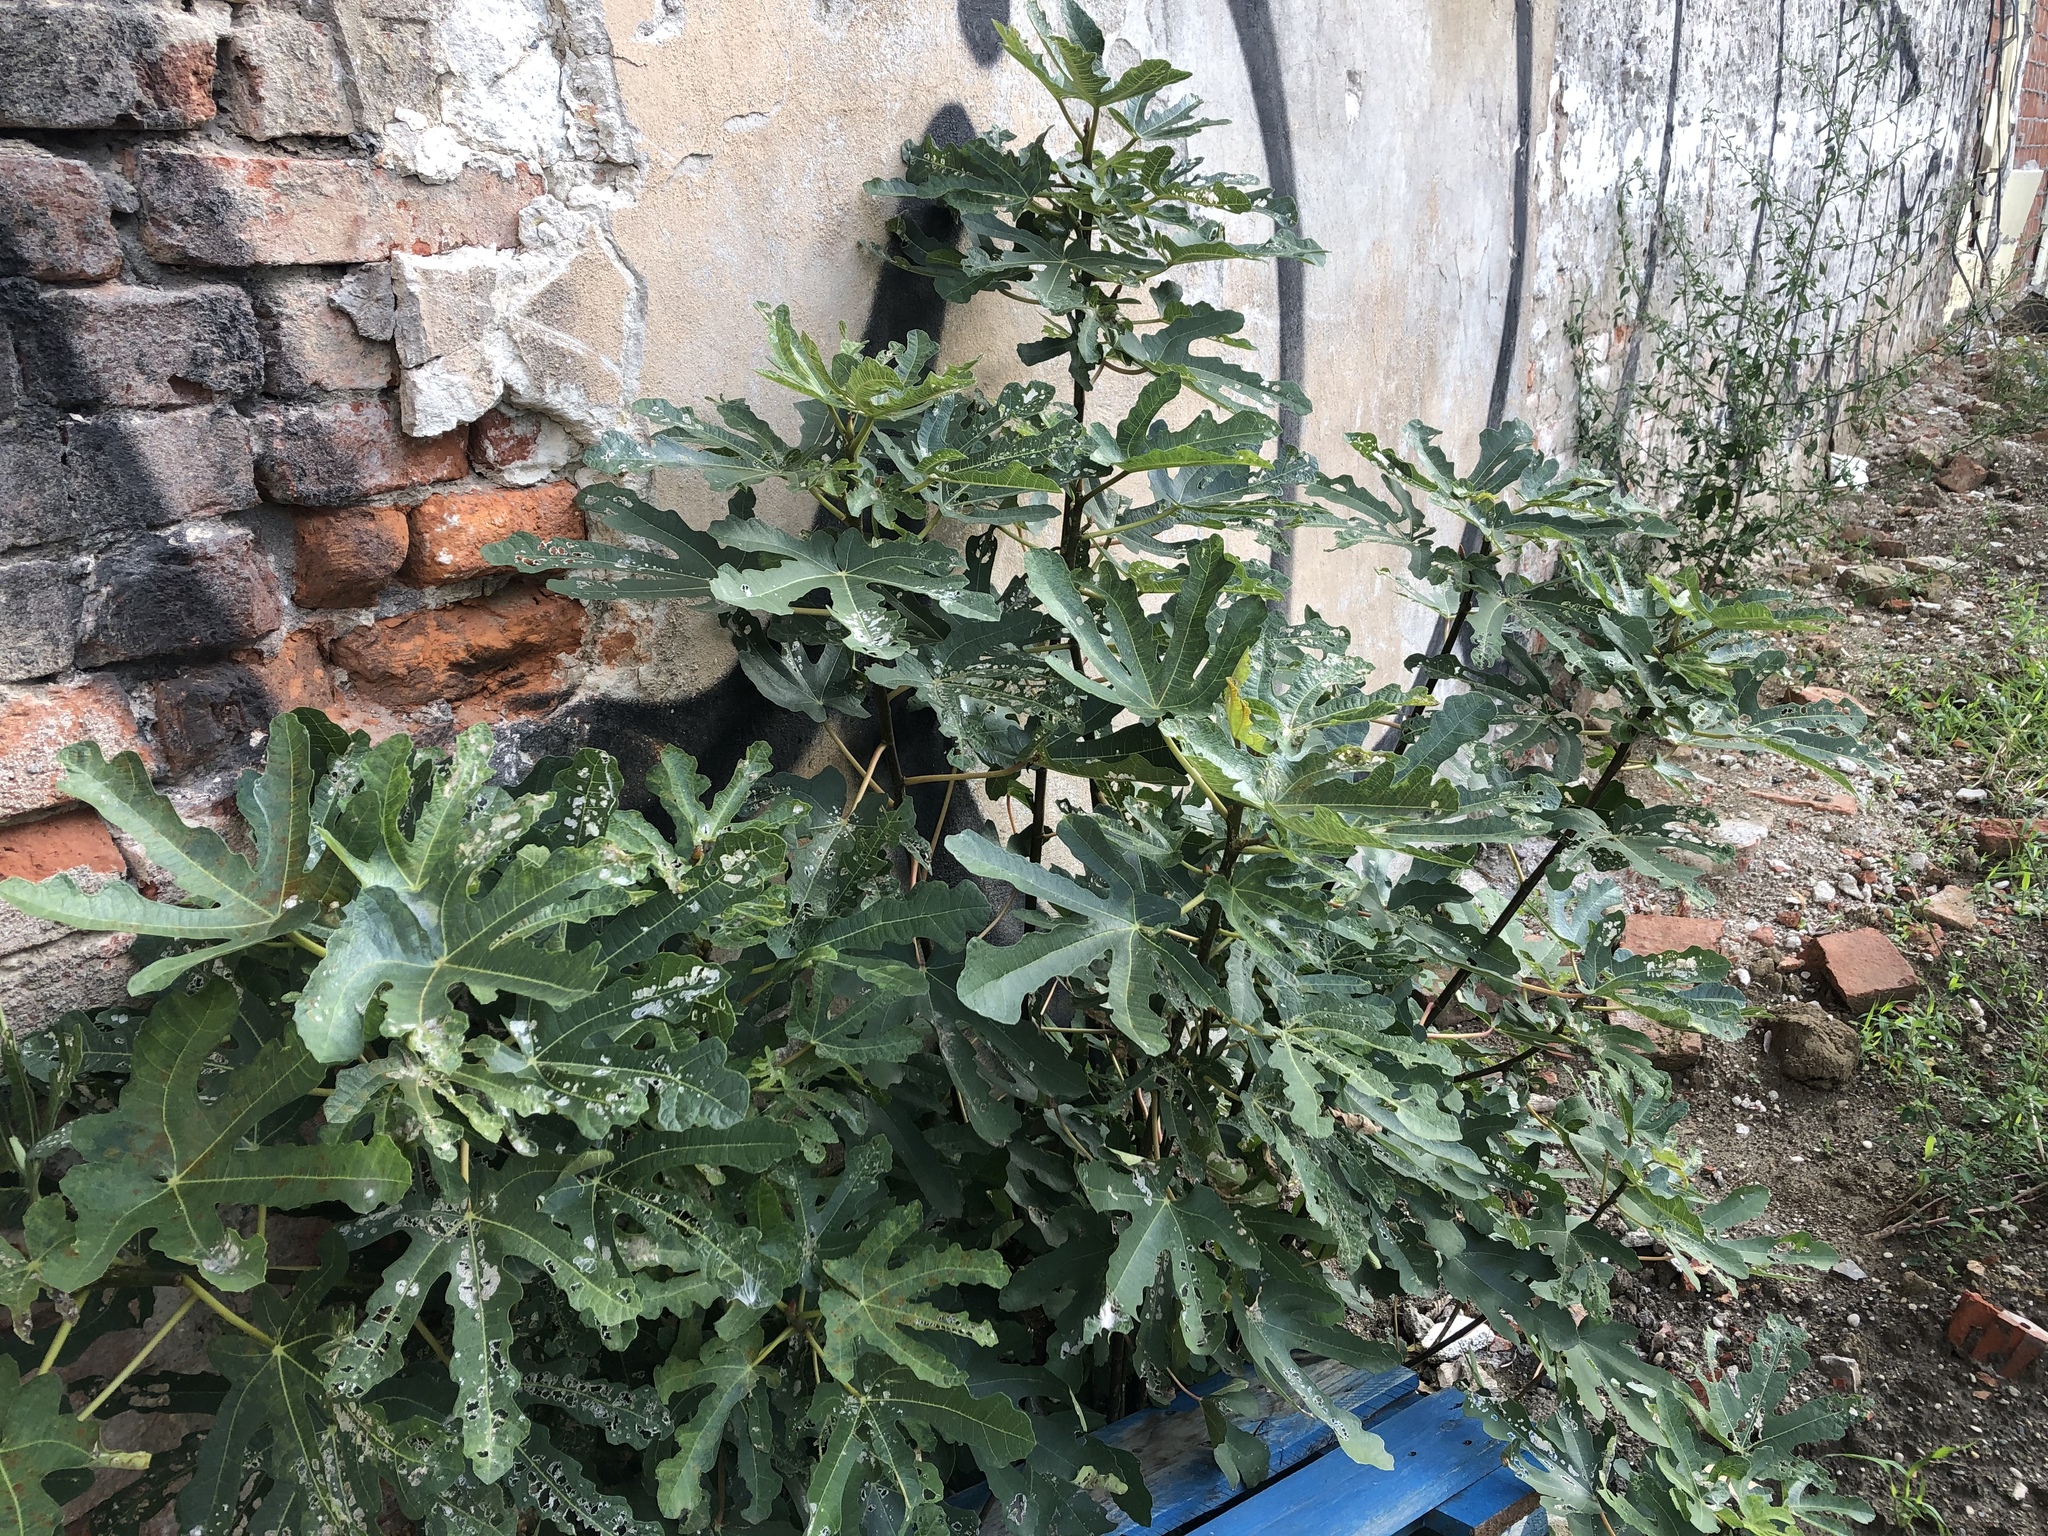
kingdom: Plantae
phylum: Tracheophyta
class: Magnoliopsida
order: Rosales
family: Moraceae
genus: Ficus
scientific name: Ficus carica
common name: Fig
